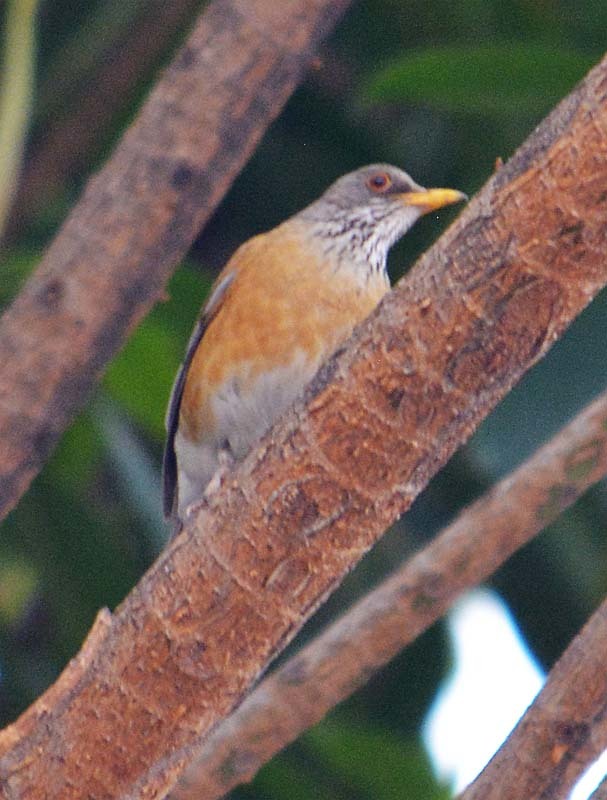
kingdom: Animalia
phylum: Chordata
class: Aves
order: Passeriformes
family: Turdidae
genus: Turdus
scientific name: Turdus rufopalliatus
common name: Rufous-backed robin
